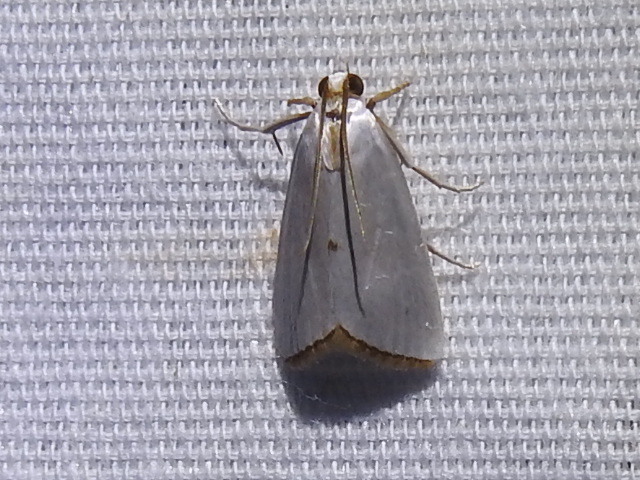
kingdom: Animalia
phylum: Arthropoda
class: Insecta
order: Lepidoptera
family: Crambidae
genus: Argyria
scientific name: Argyria nivalis
